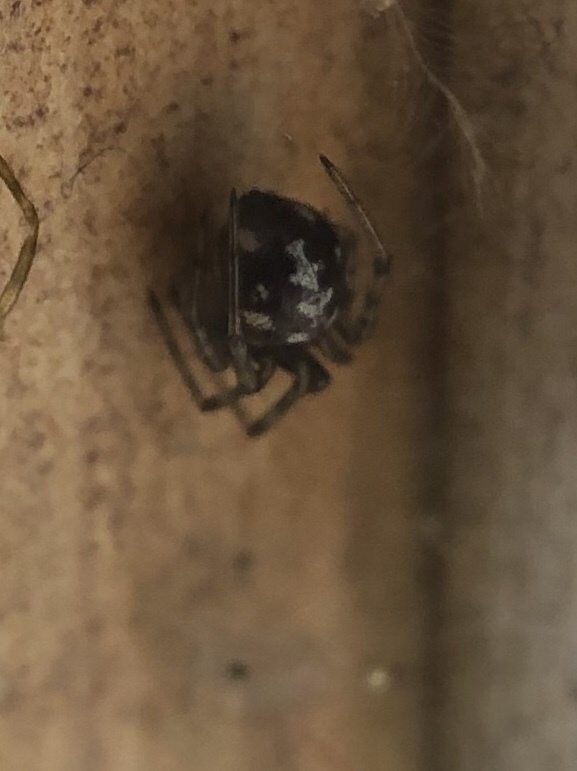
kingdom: Animalia
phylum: Arthropoda
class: Arachnida
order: Araneae
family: Theridiidae
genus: Steatoda
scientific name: Steatoda triangulosa
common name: Triangulate bud spider
